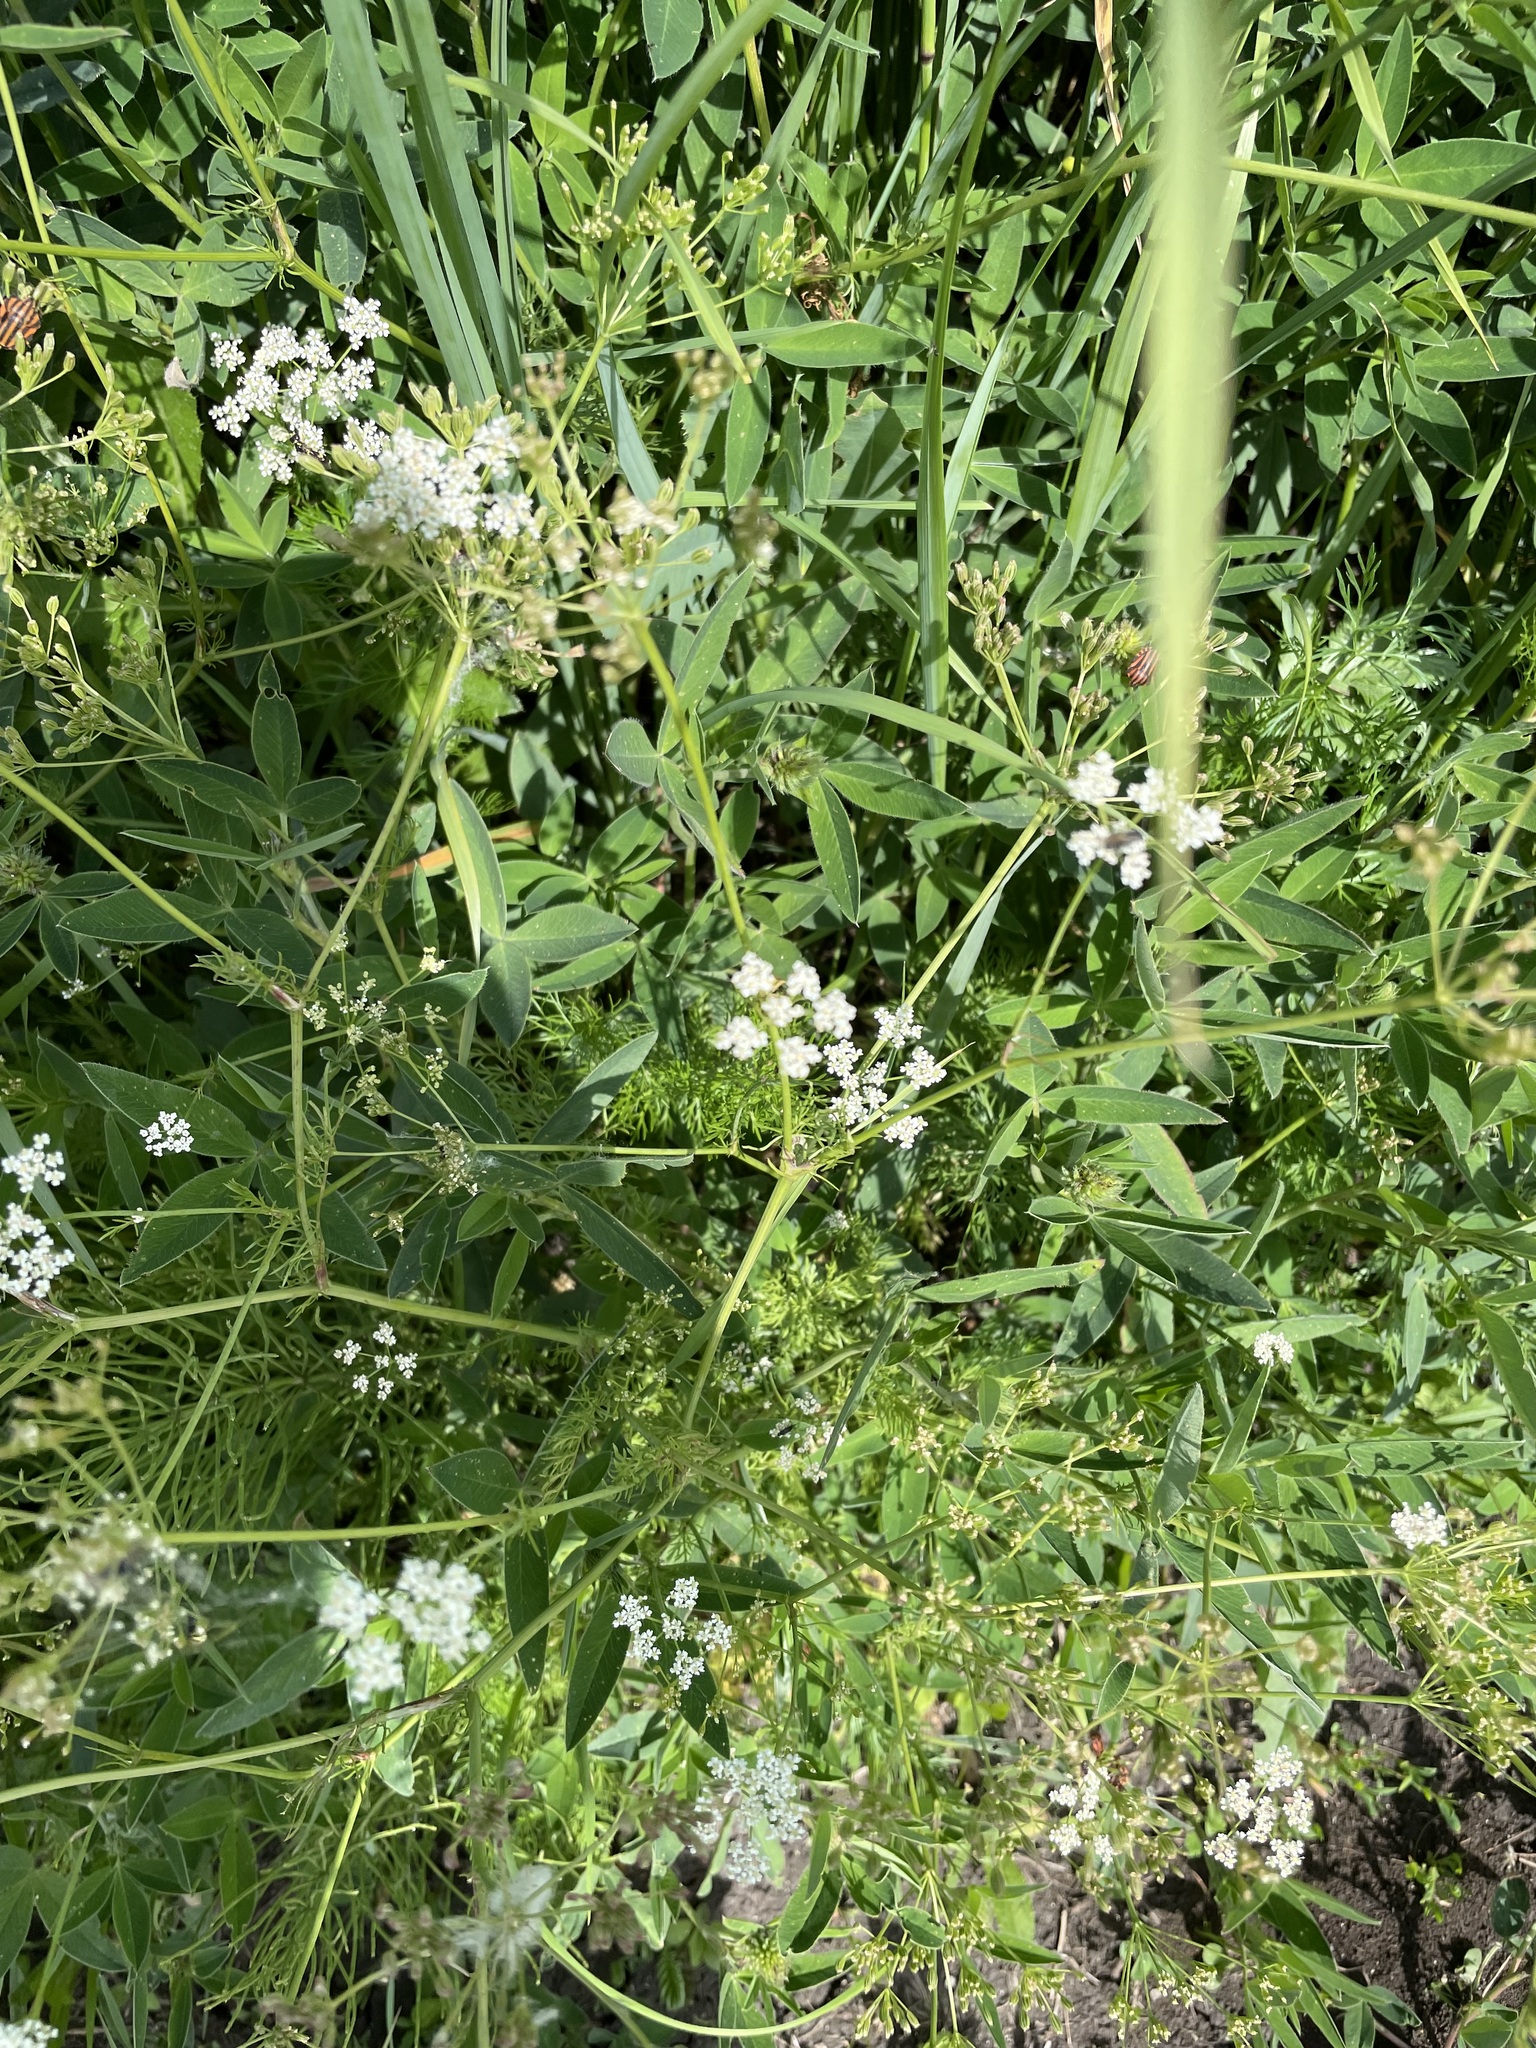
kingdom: Plantae
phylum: Tracheophyta
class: Magnoliopsida
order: Apiales
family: Apiaceae
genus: Carum
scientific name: Carum carvi
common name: Caraway
